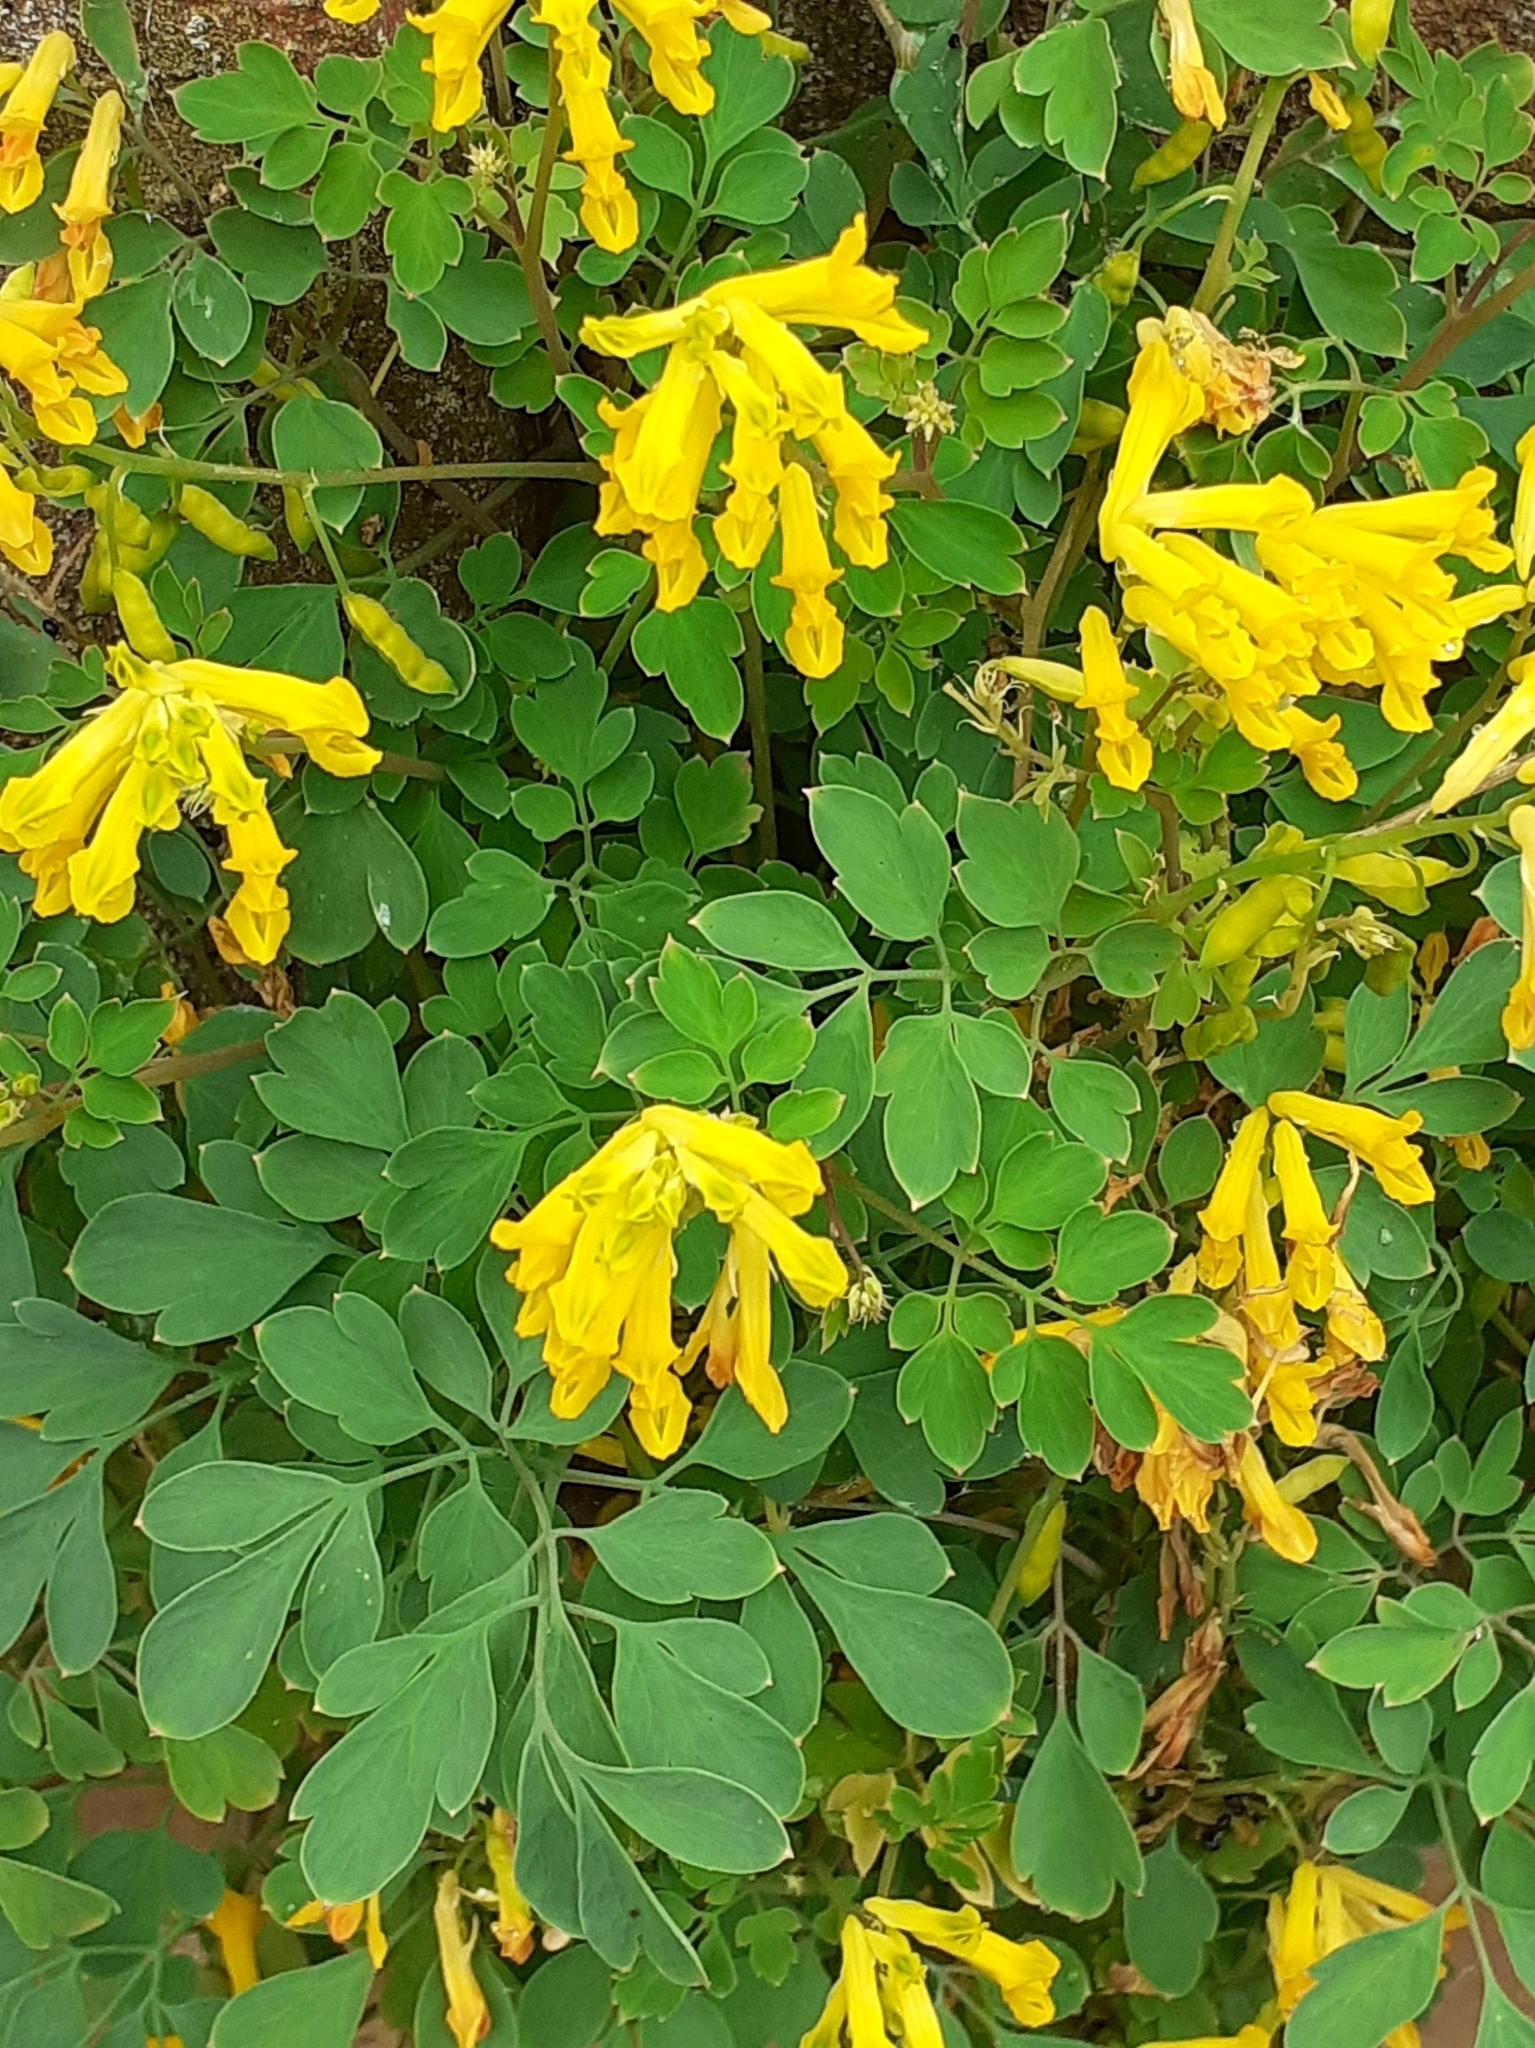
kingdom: Plantae
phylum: Tracheophyta
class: Magnoliopsida
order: Ranunculales
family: Papaveraceae
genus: Pseudofumaria
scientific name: Pseudofumaria lutea
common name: Yellow corydalis
